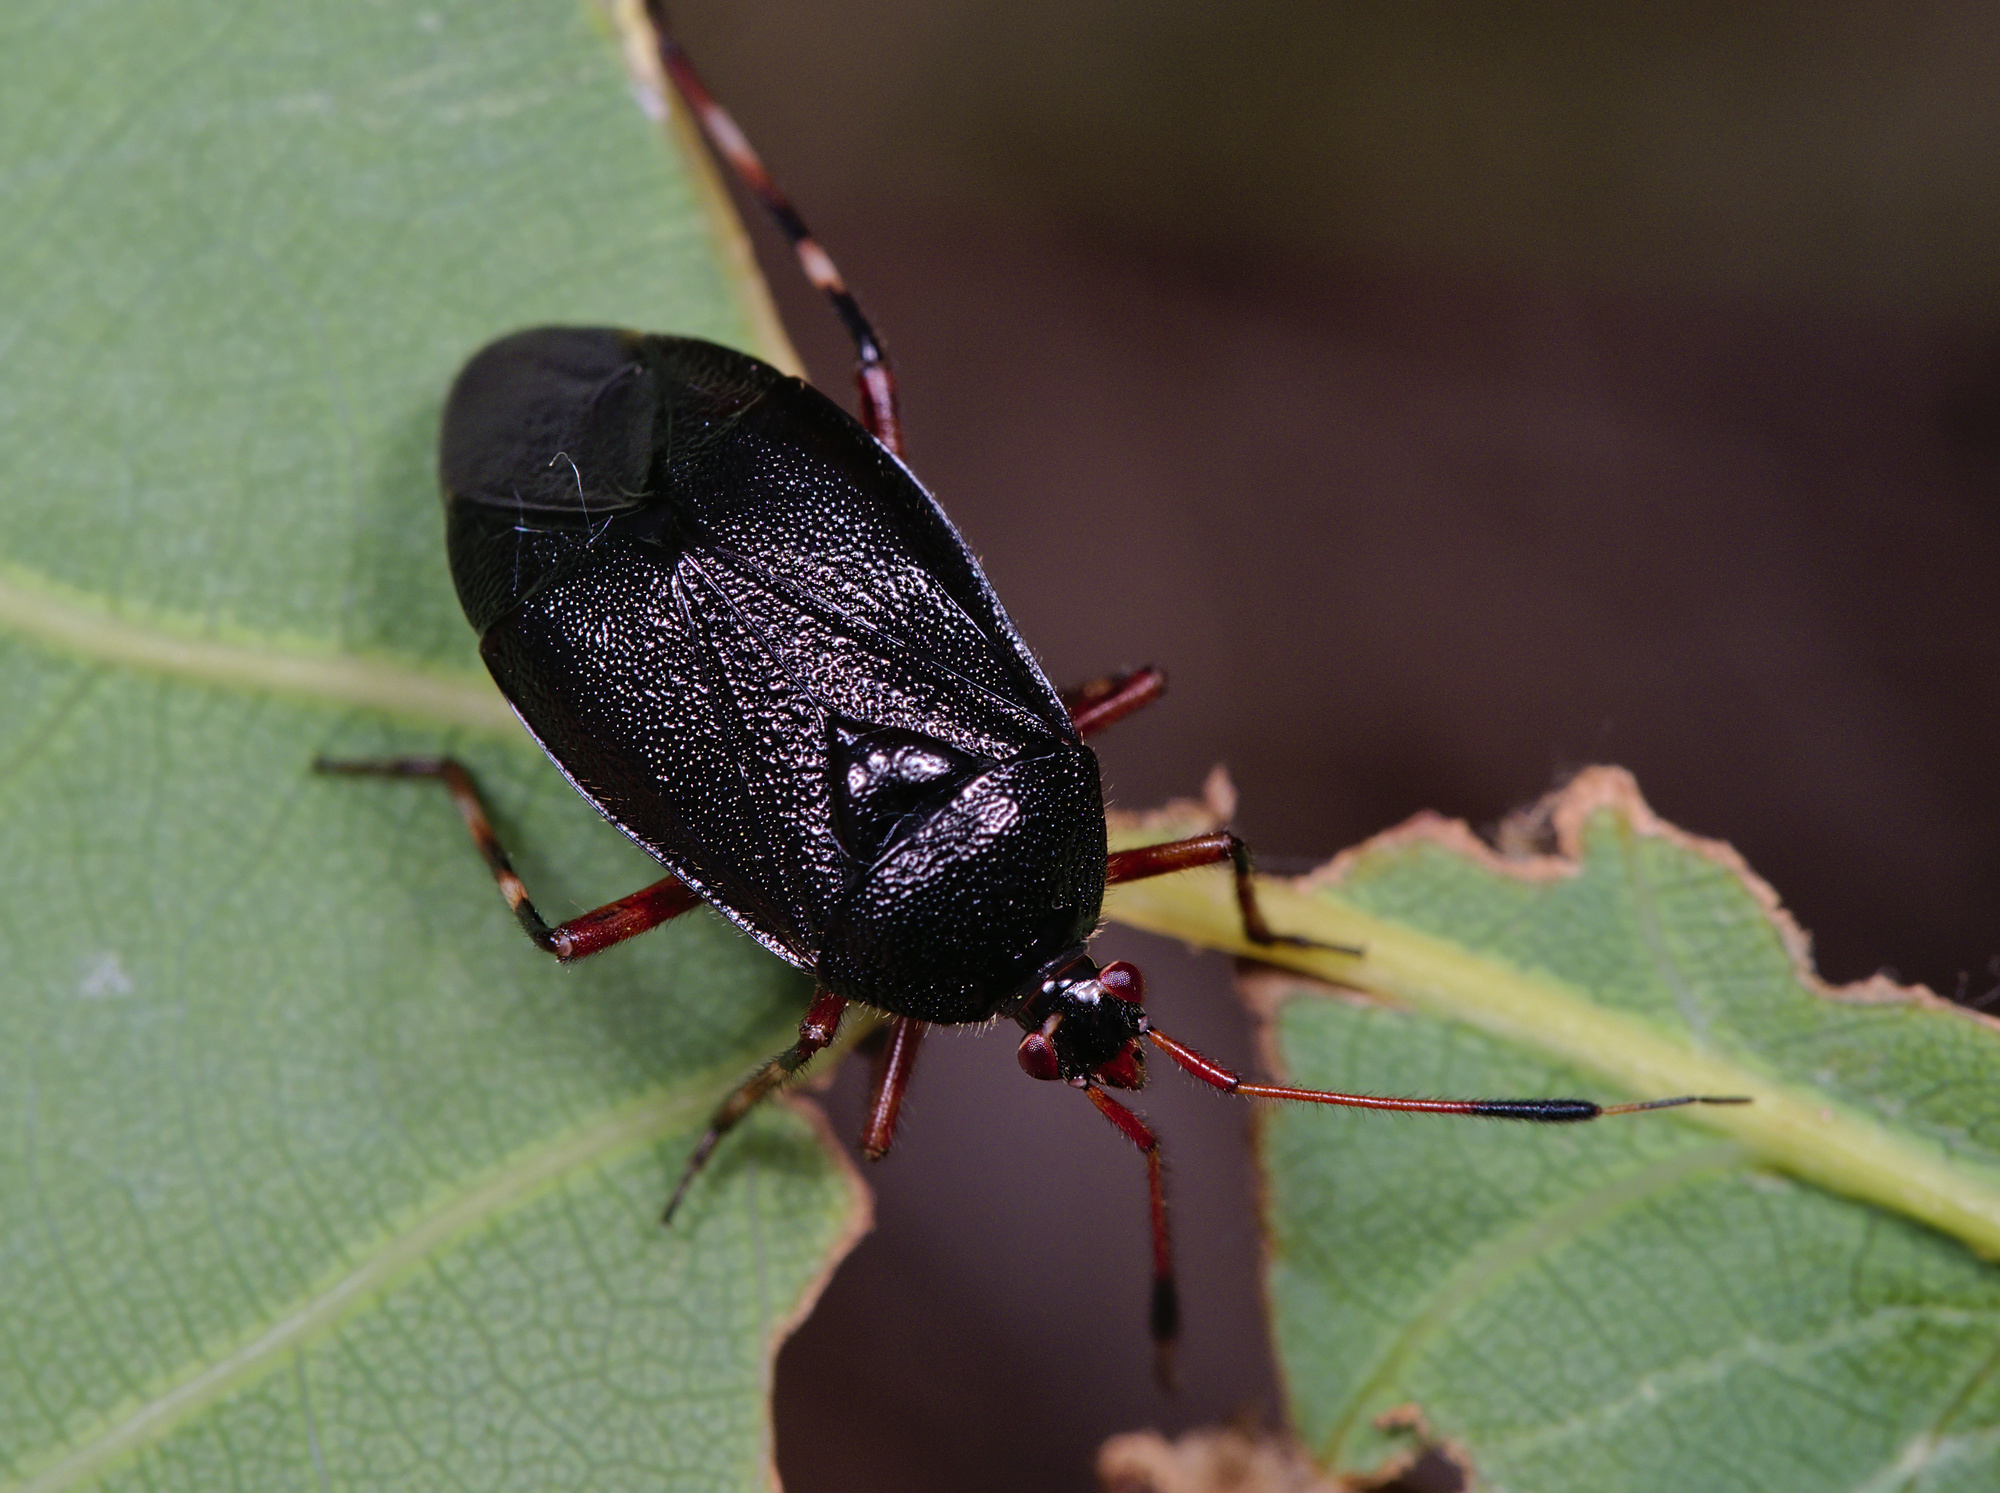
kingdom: Animalia
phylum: Arthropoda
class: Insecta
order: Hemiptera
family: Miridae
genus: Deraeocoris
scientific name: Deraeocoris trifasciatus
